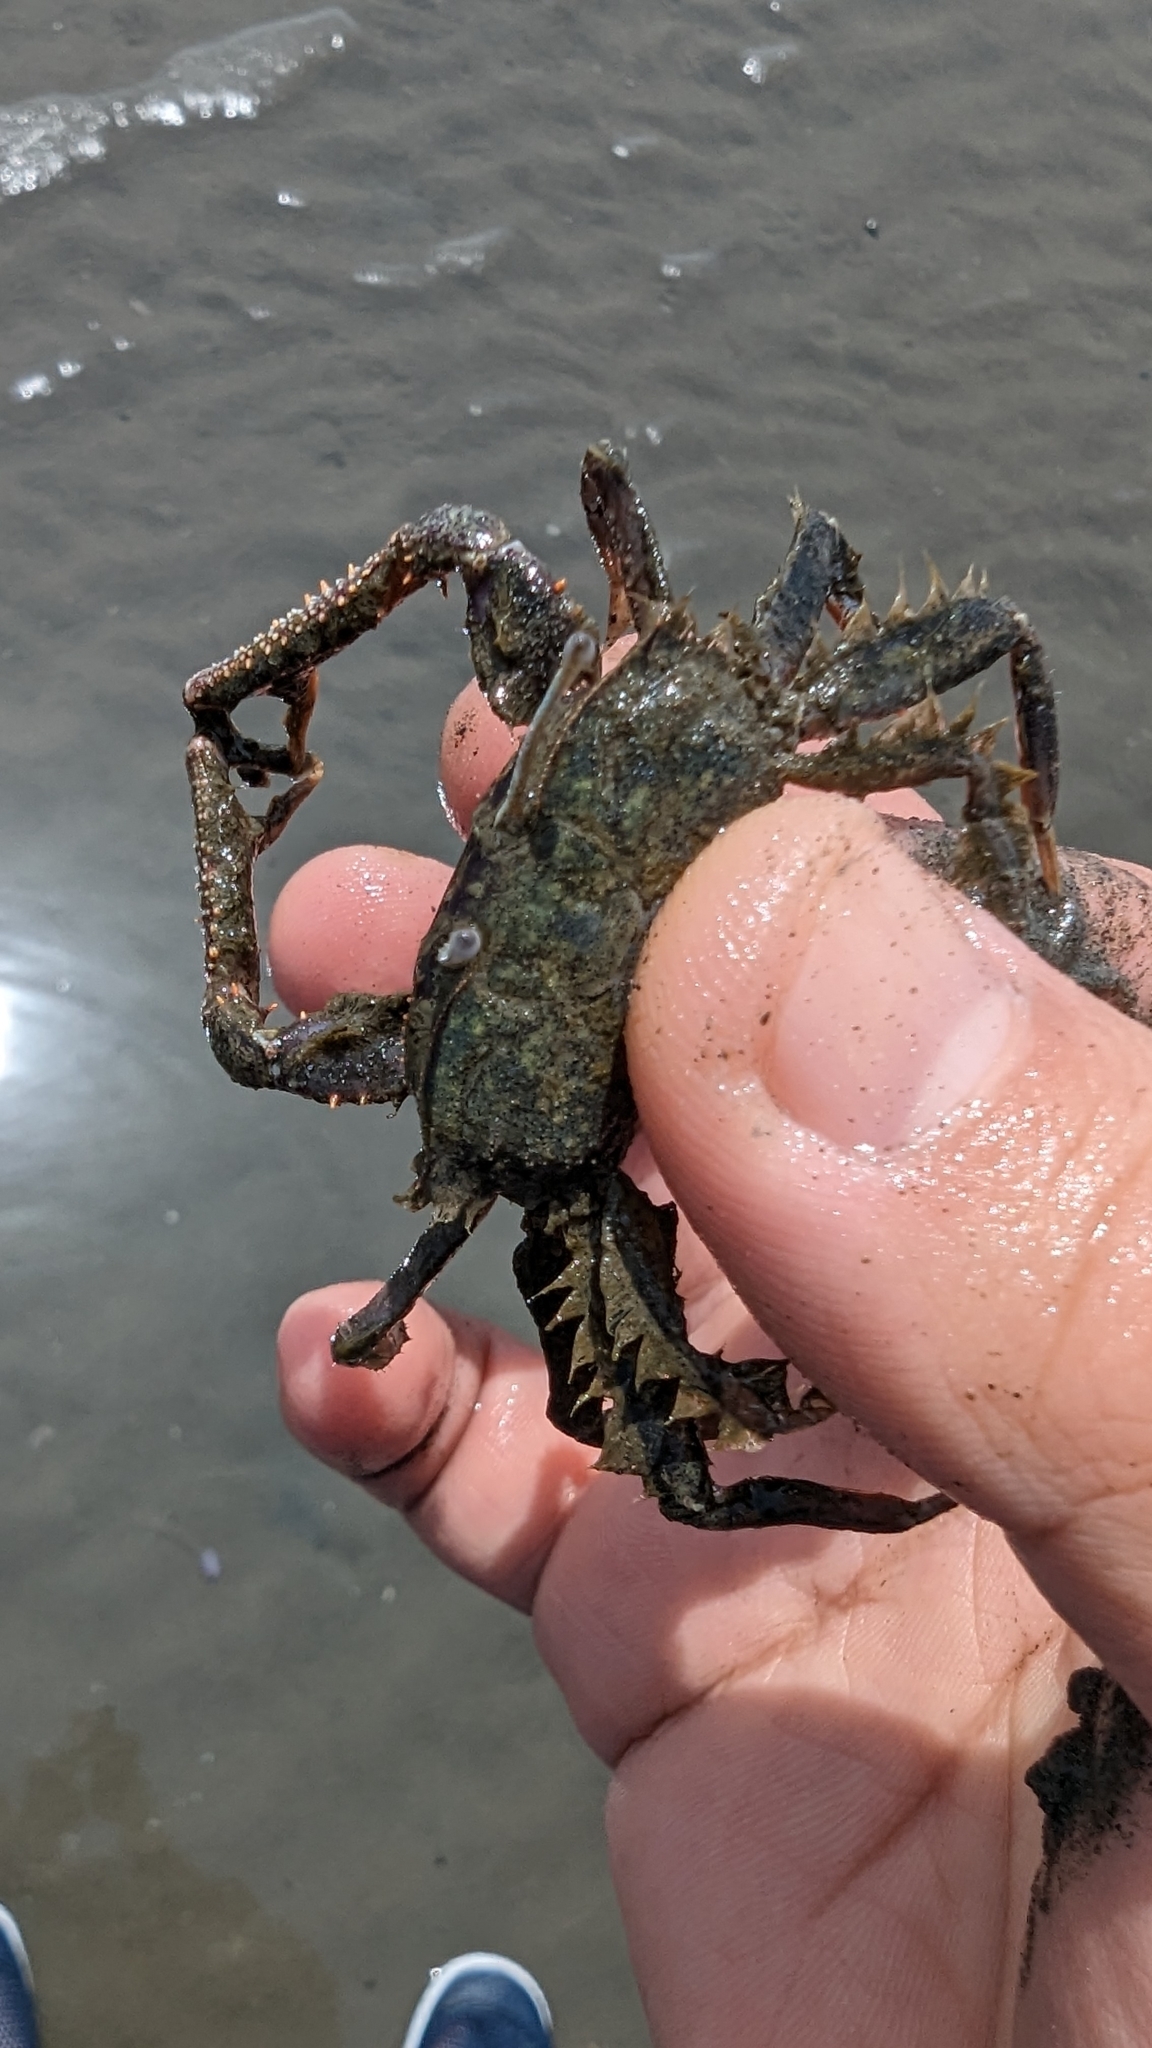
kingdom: Animalia
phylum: Arthropoda
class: Malacostraca
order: Decapoda
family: Macrophthalmidae
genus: Macrophthalmus
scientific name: Macrophthalmus abbreviatus
